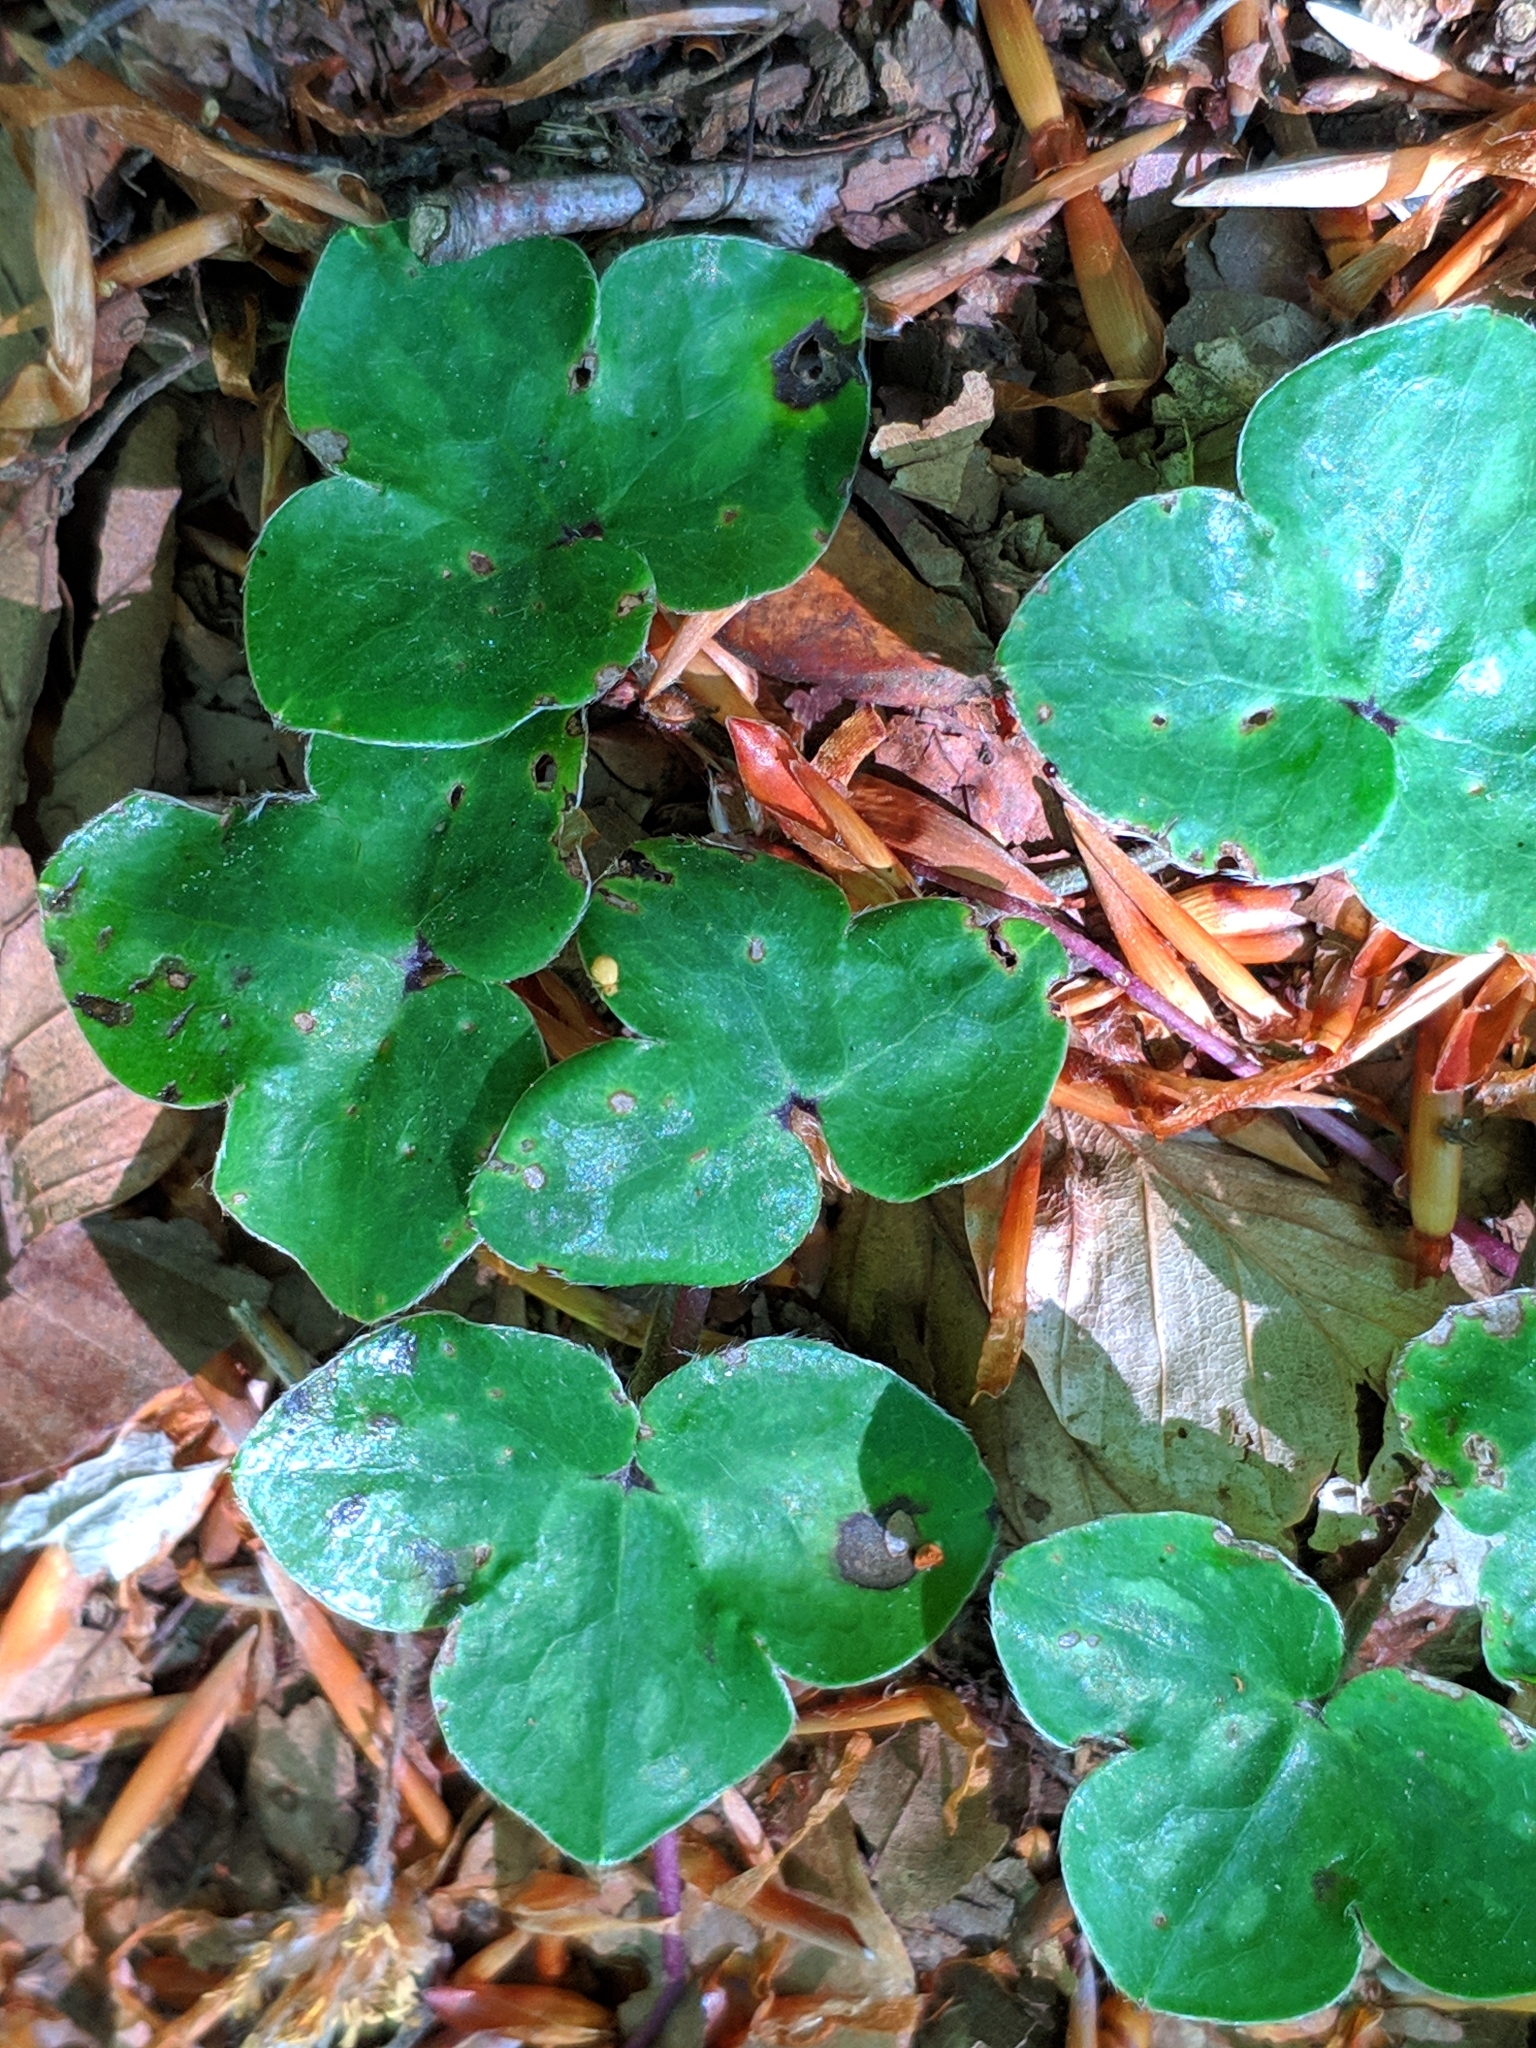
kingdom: Plantae
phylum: Tracheophyta
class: Magnoliopsida
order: Ranunculales
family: Ranunculaceae
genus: Hepatica
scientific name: Hepatica nobilis
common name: Liverleaf
